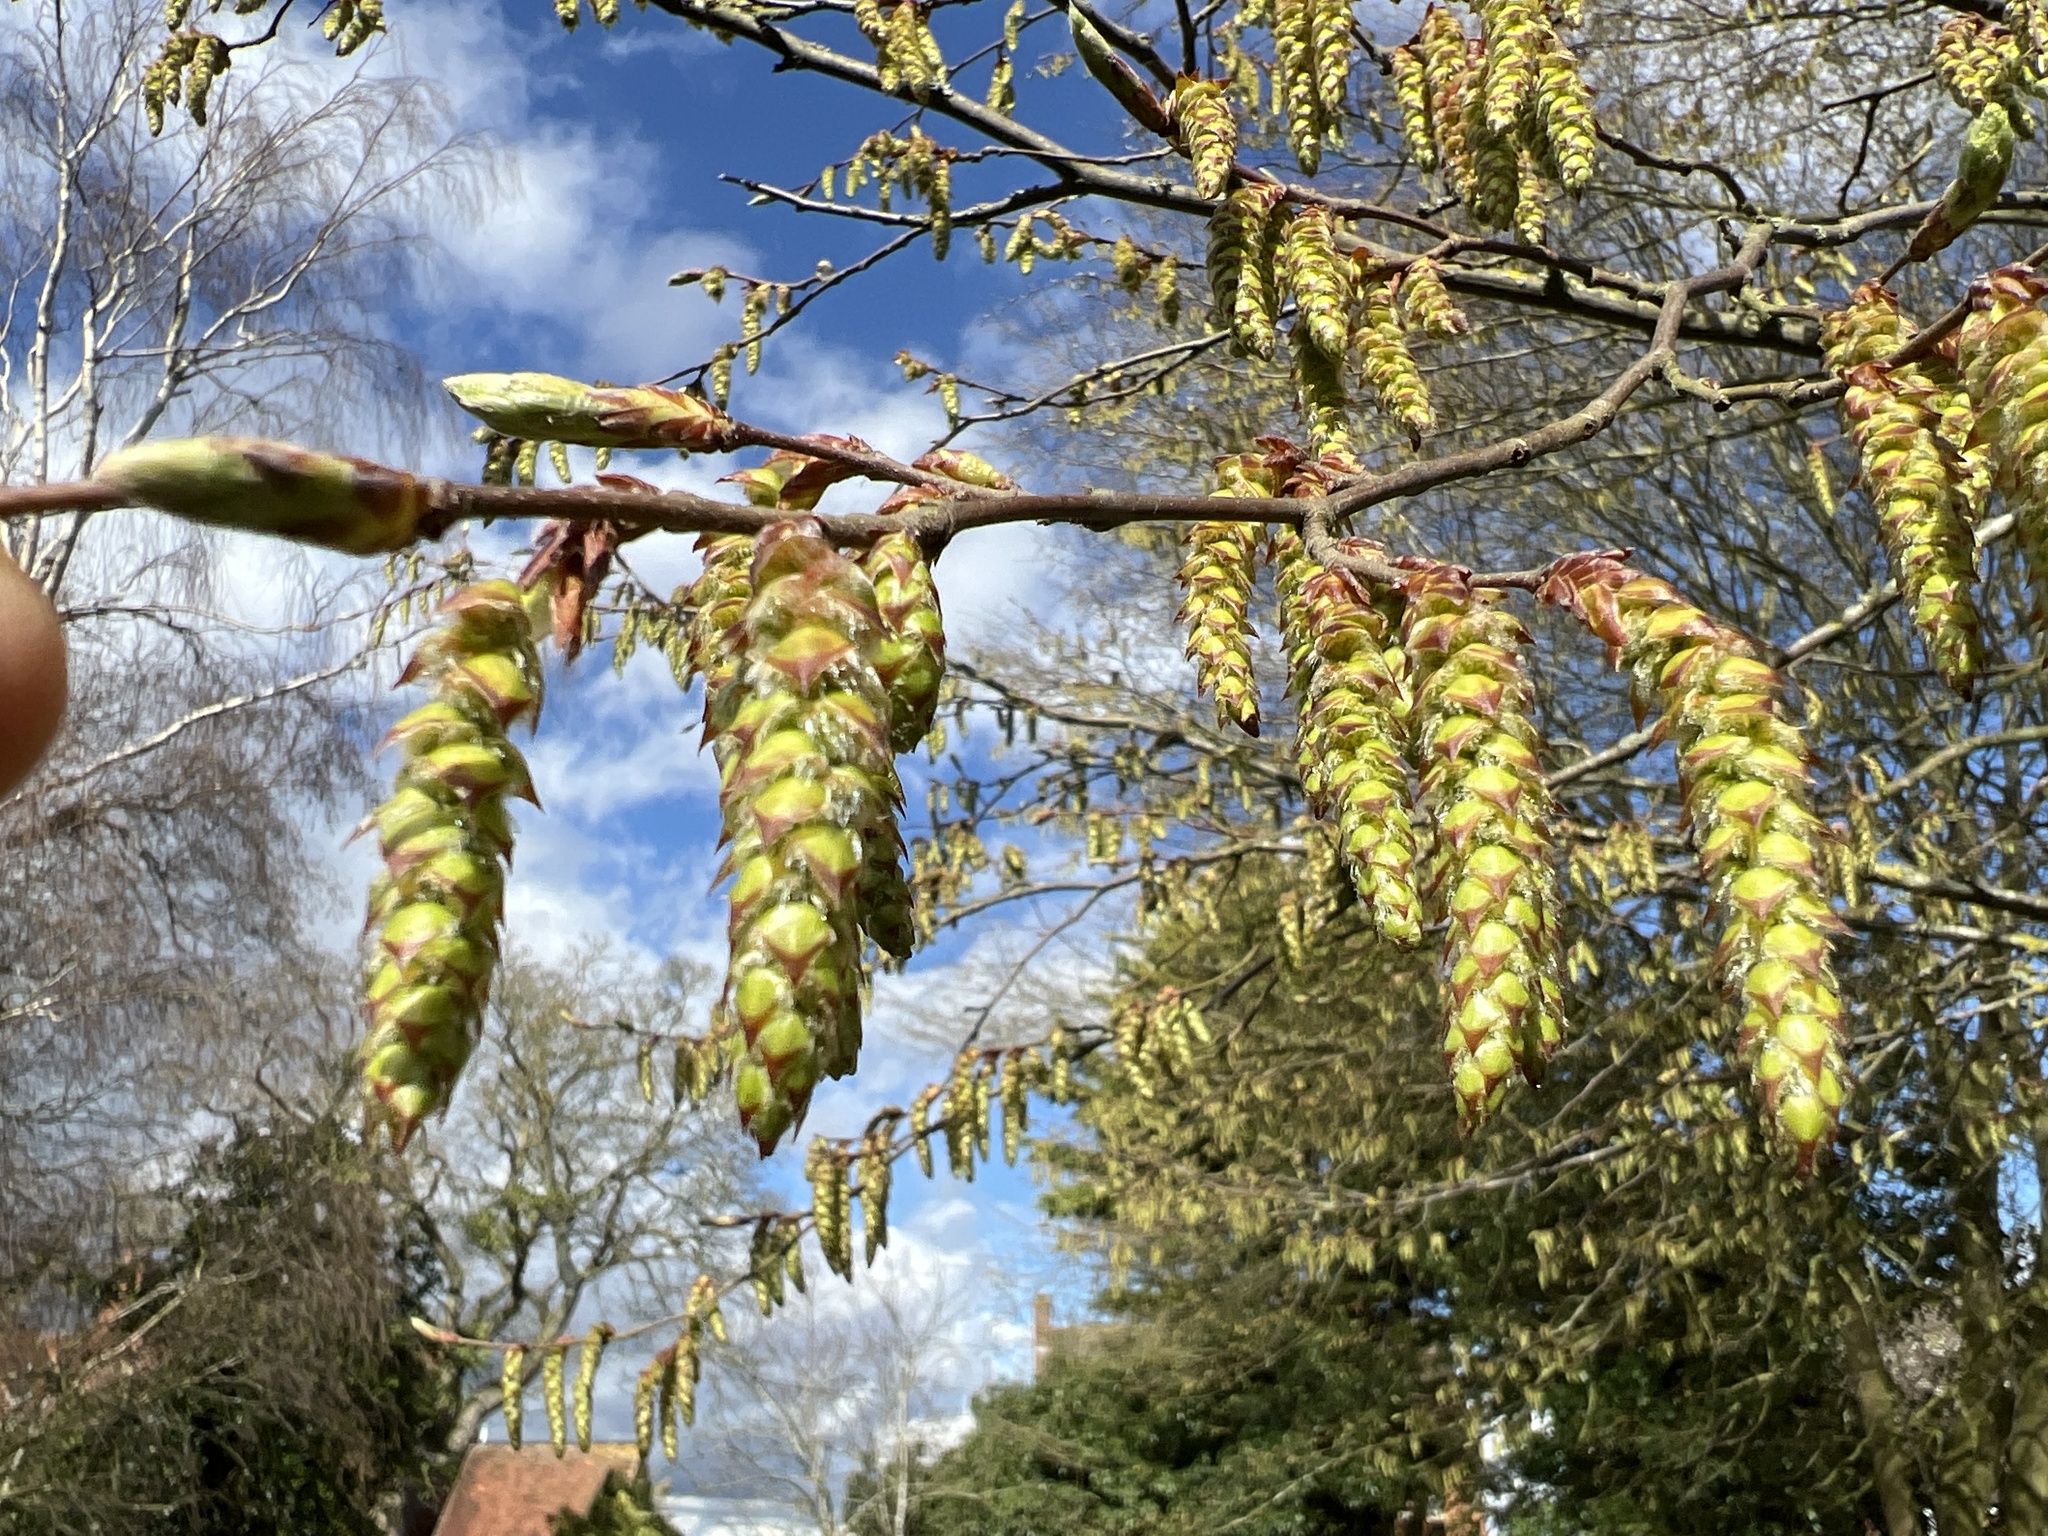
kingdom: Plantae
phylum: Tracheophyta
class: Magnoliopsida
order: Fagales
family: Betulaceae
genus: Carpinus
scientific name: Carpinus betulus
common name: Hornbeam
